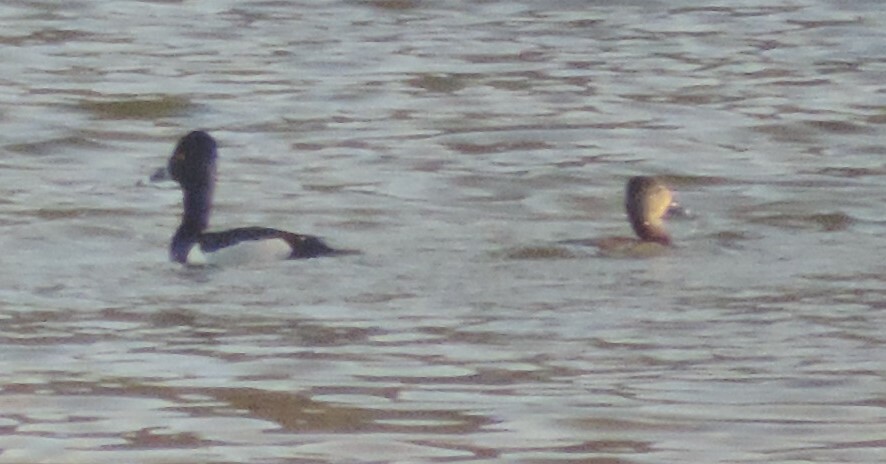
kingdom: Animalia
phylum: Chordata
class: Aves
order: Anseriformes
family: Anatidae
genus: Aythya
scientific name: Aythya collaris
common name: Ring-necked duck
